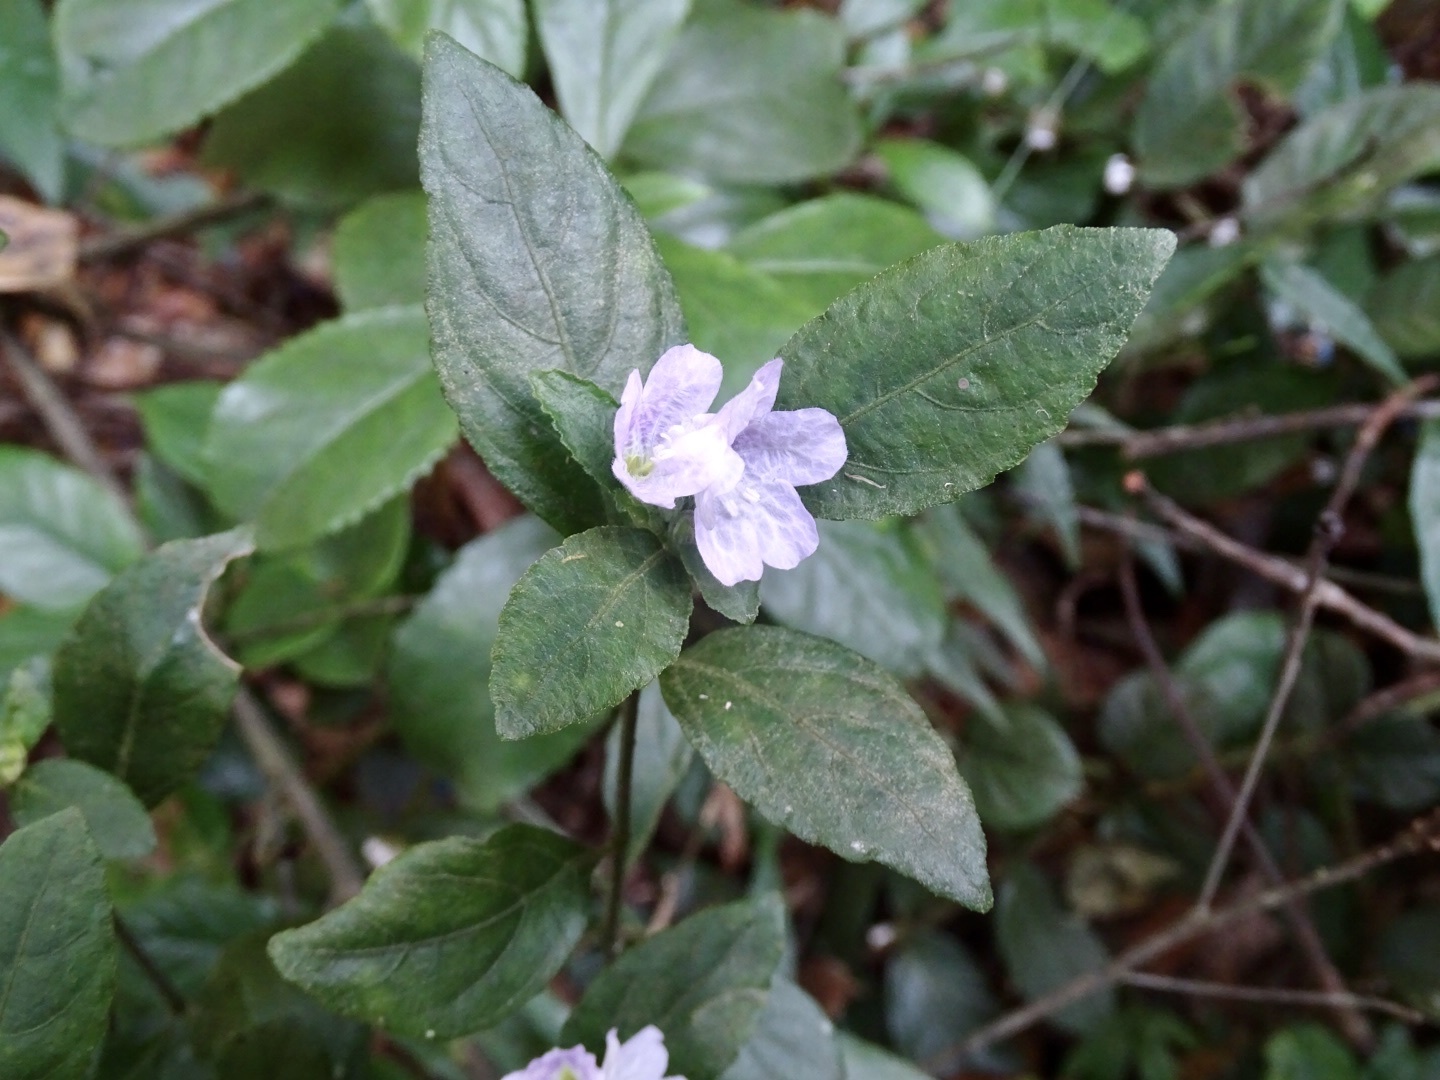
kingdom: Plantae
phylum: Tracheophyta
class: Magnoliopsida
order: Lamiales
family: Acanthaceae
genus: Strobilanthes
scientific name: Strobilanthes tetrasperma
